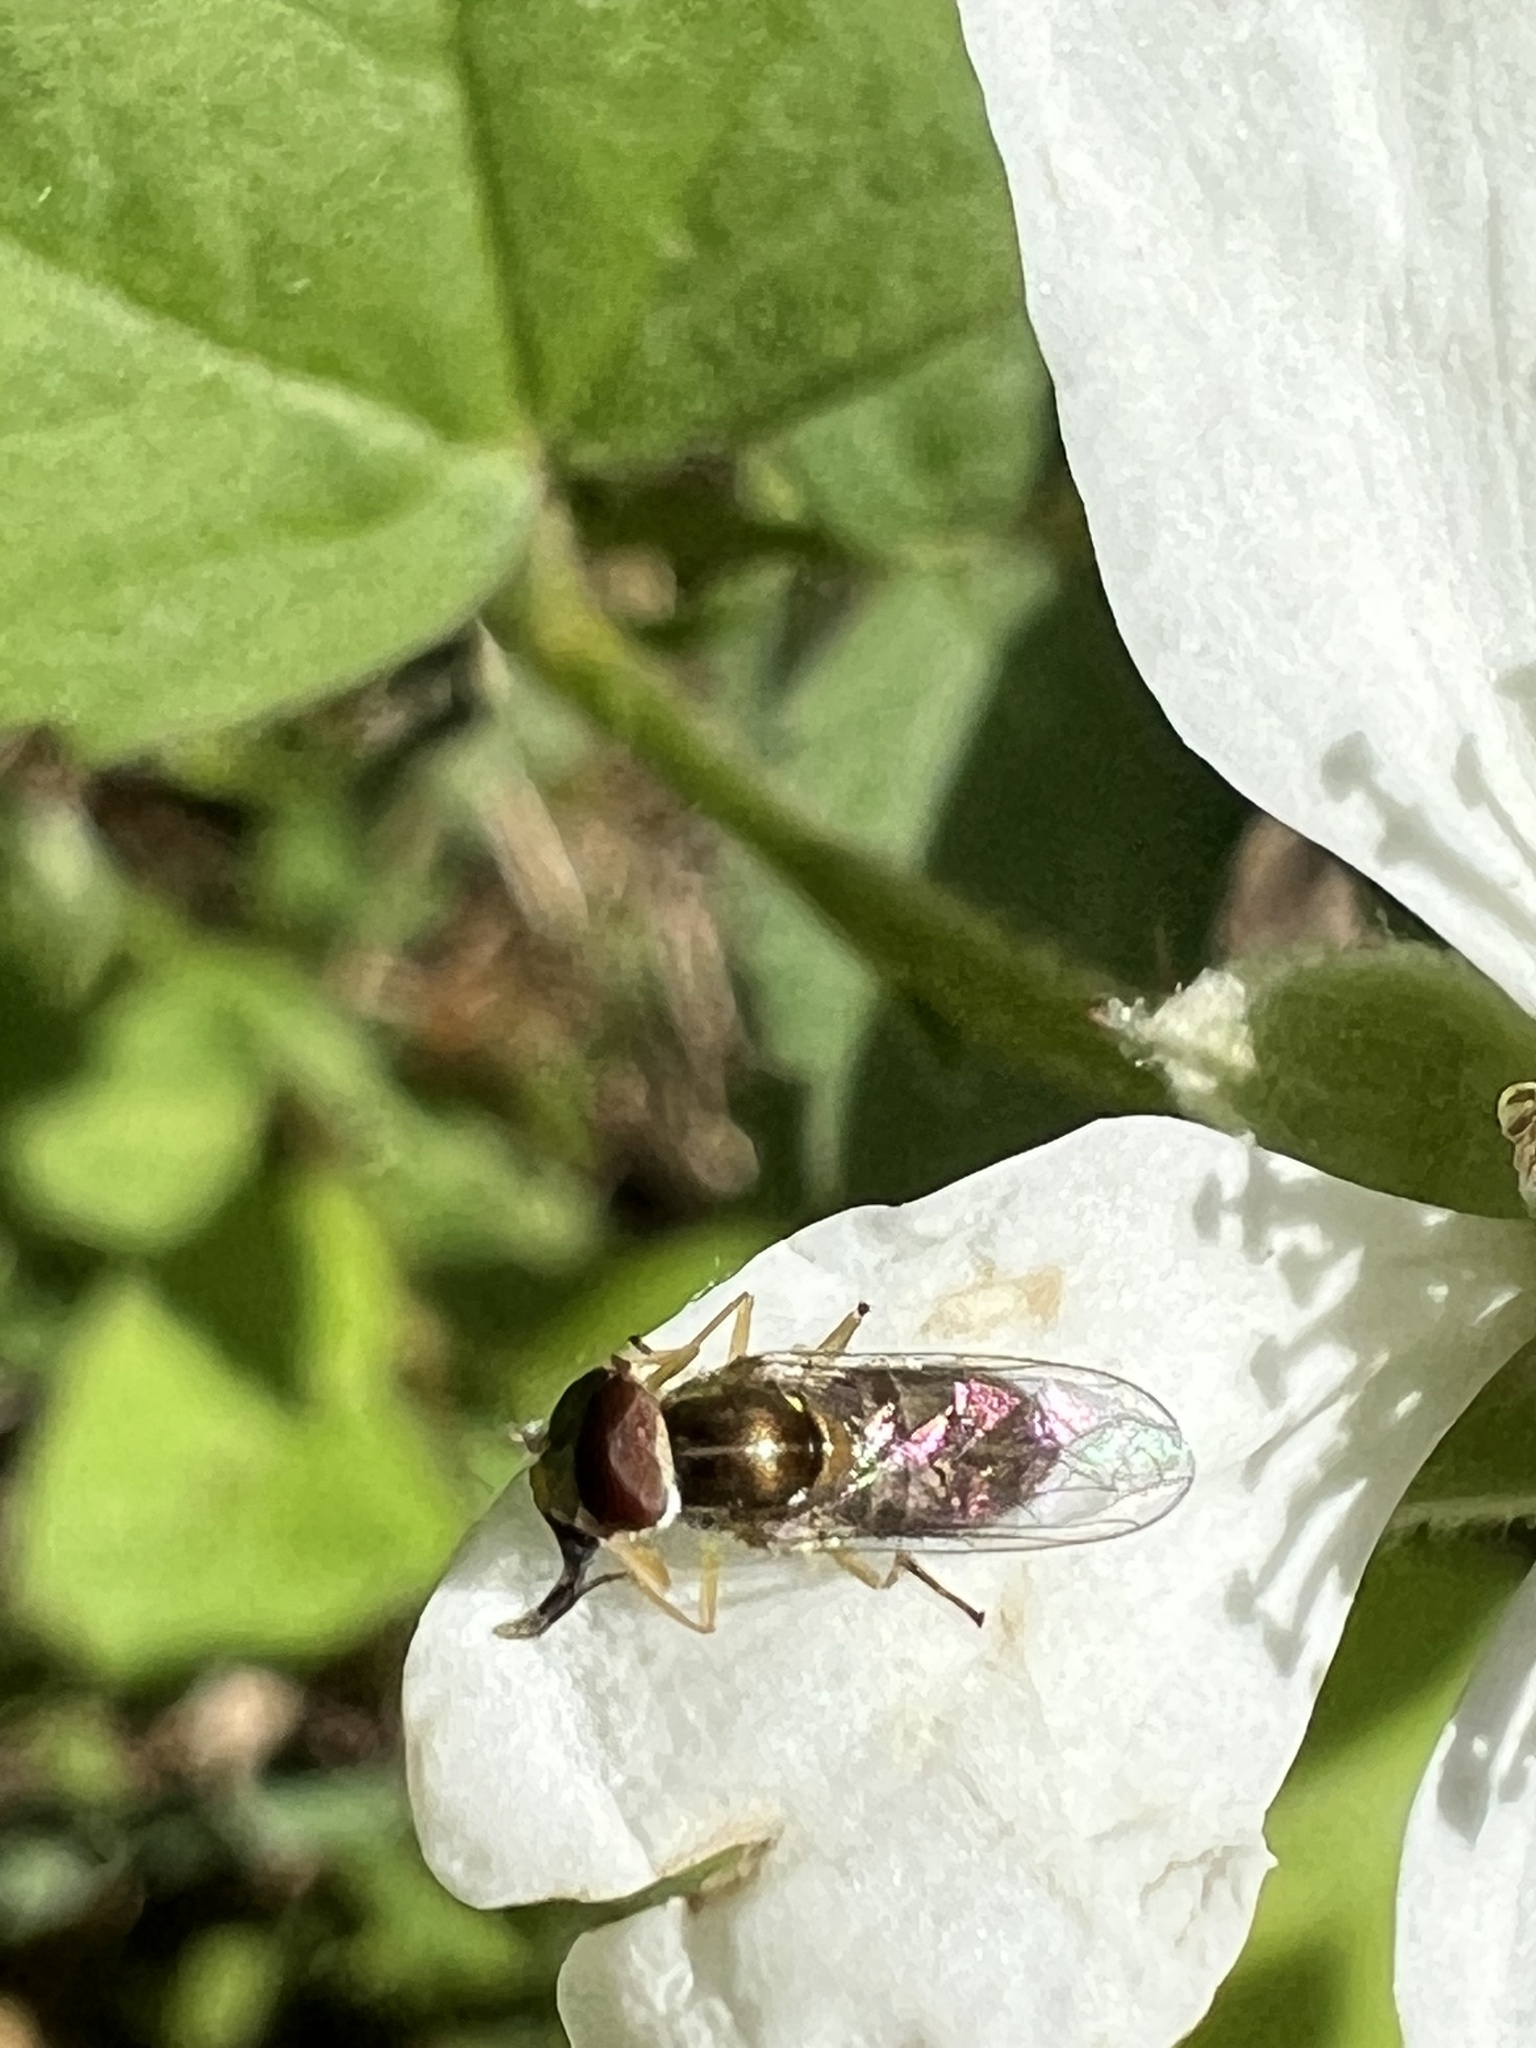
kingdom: Animalia
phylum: Arthropoda
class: Insecta
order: Diptera
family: Syrphidae
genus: Toxomerus
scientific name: Toxomerus marginatus
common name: Syrphid fly
